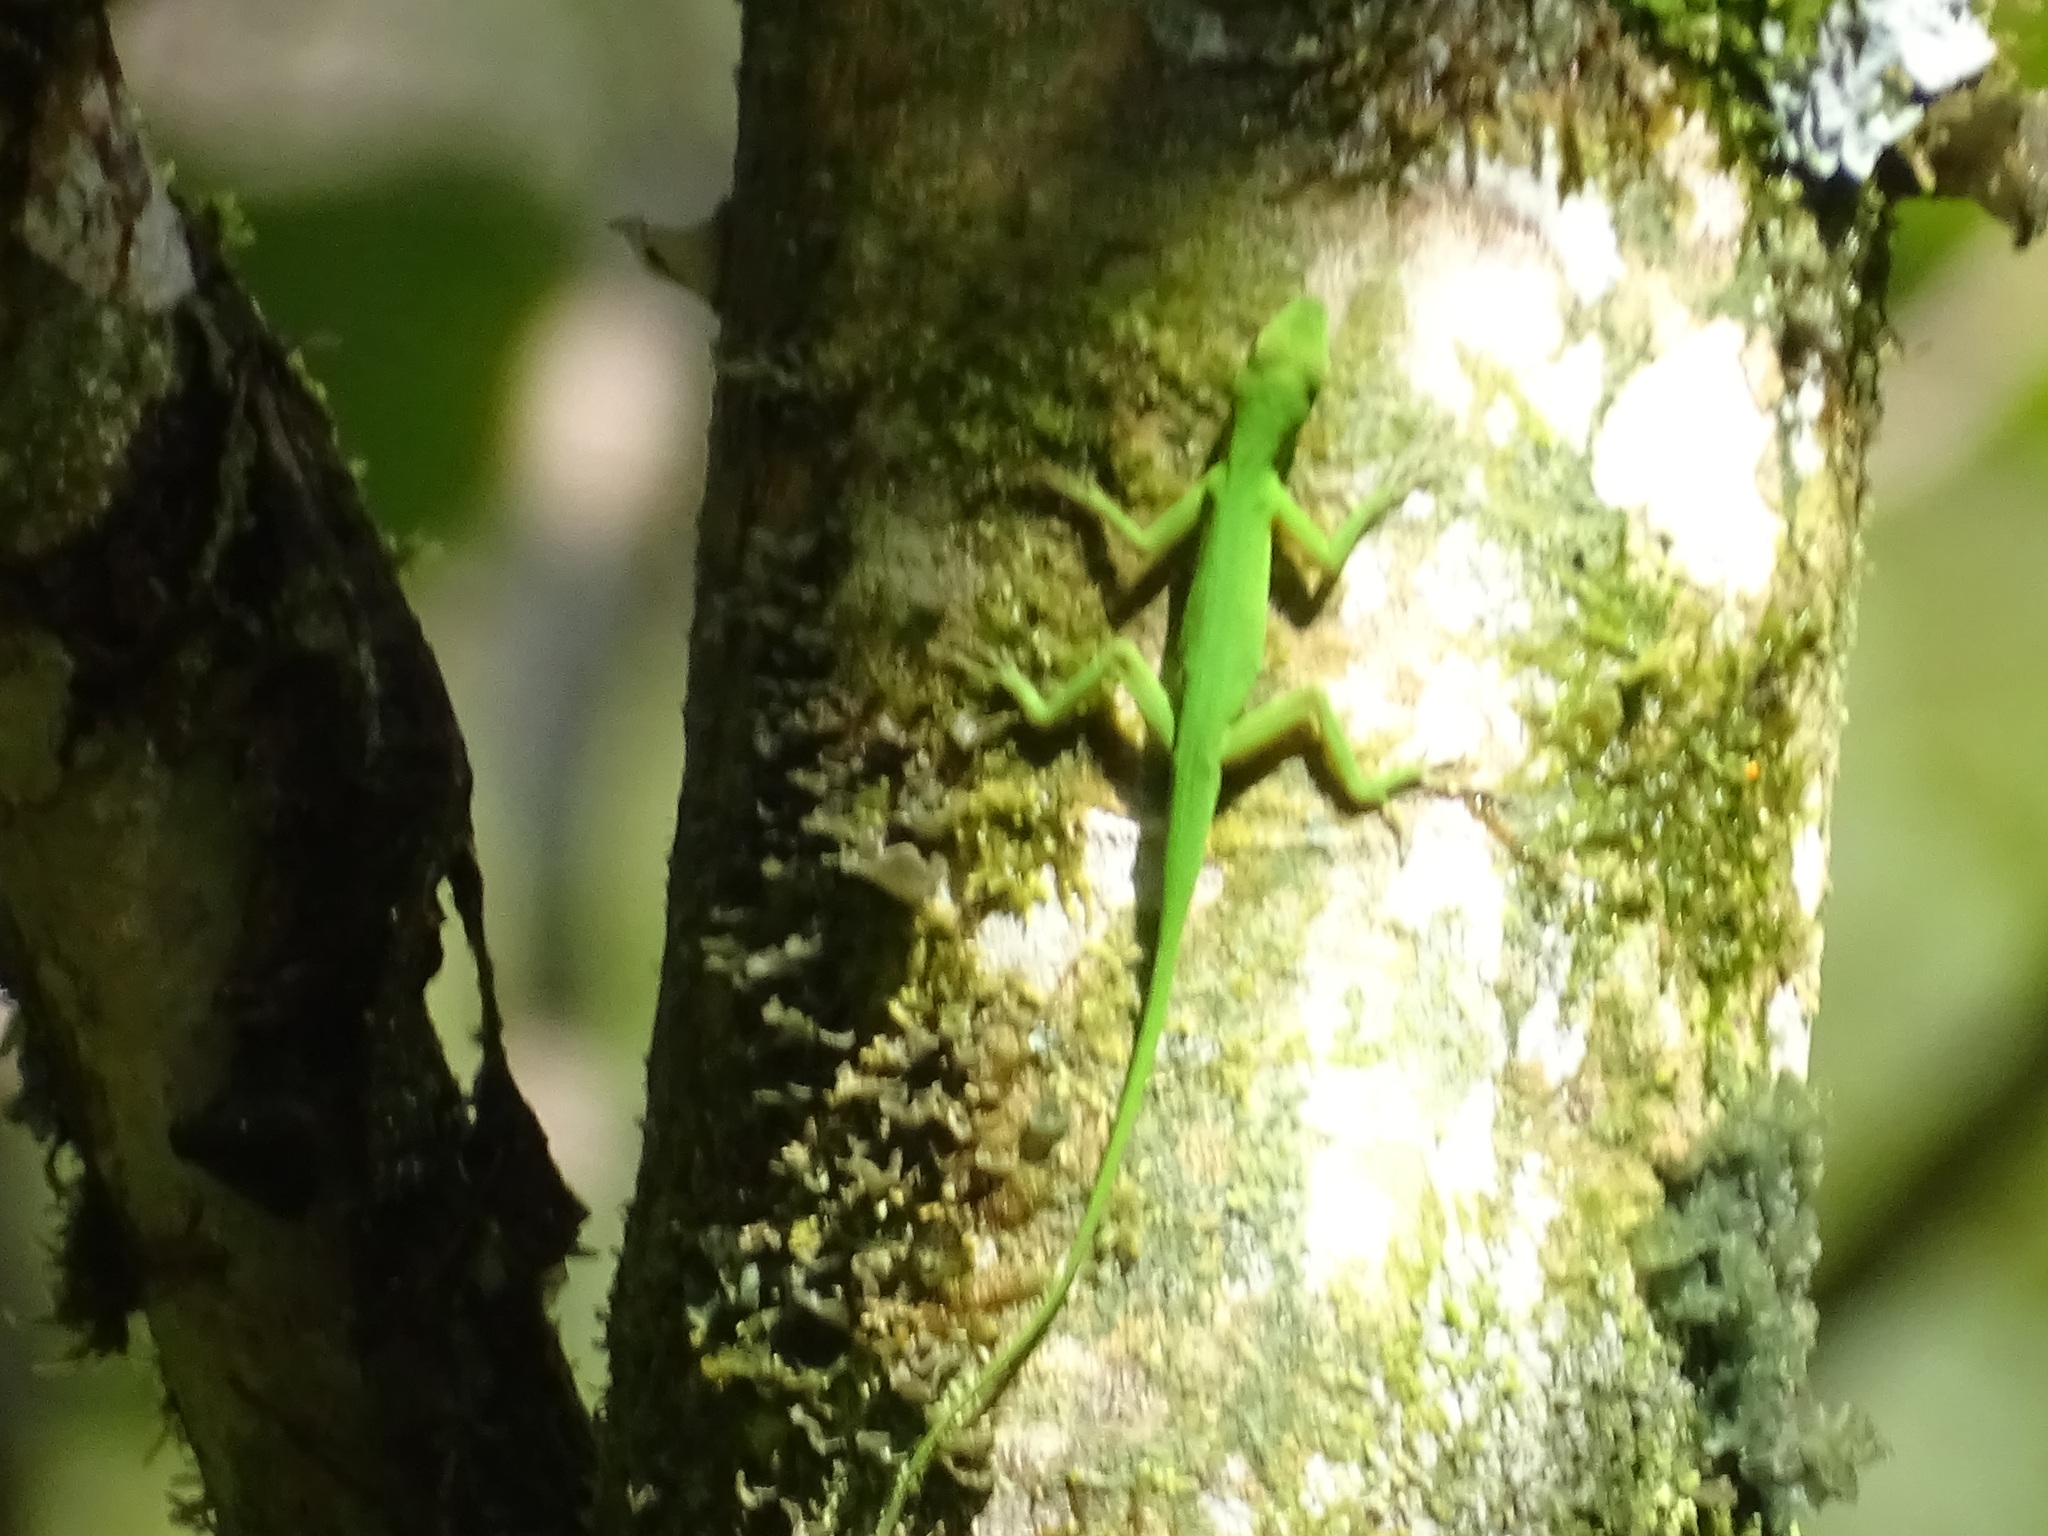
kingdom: Animalia
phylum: Chordata
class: Squamata
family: Dactyloidae
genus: Anolis
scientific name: Anolis chloris
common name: Boulenger's green anole
